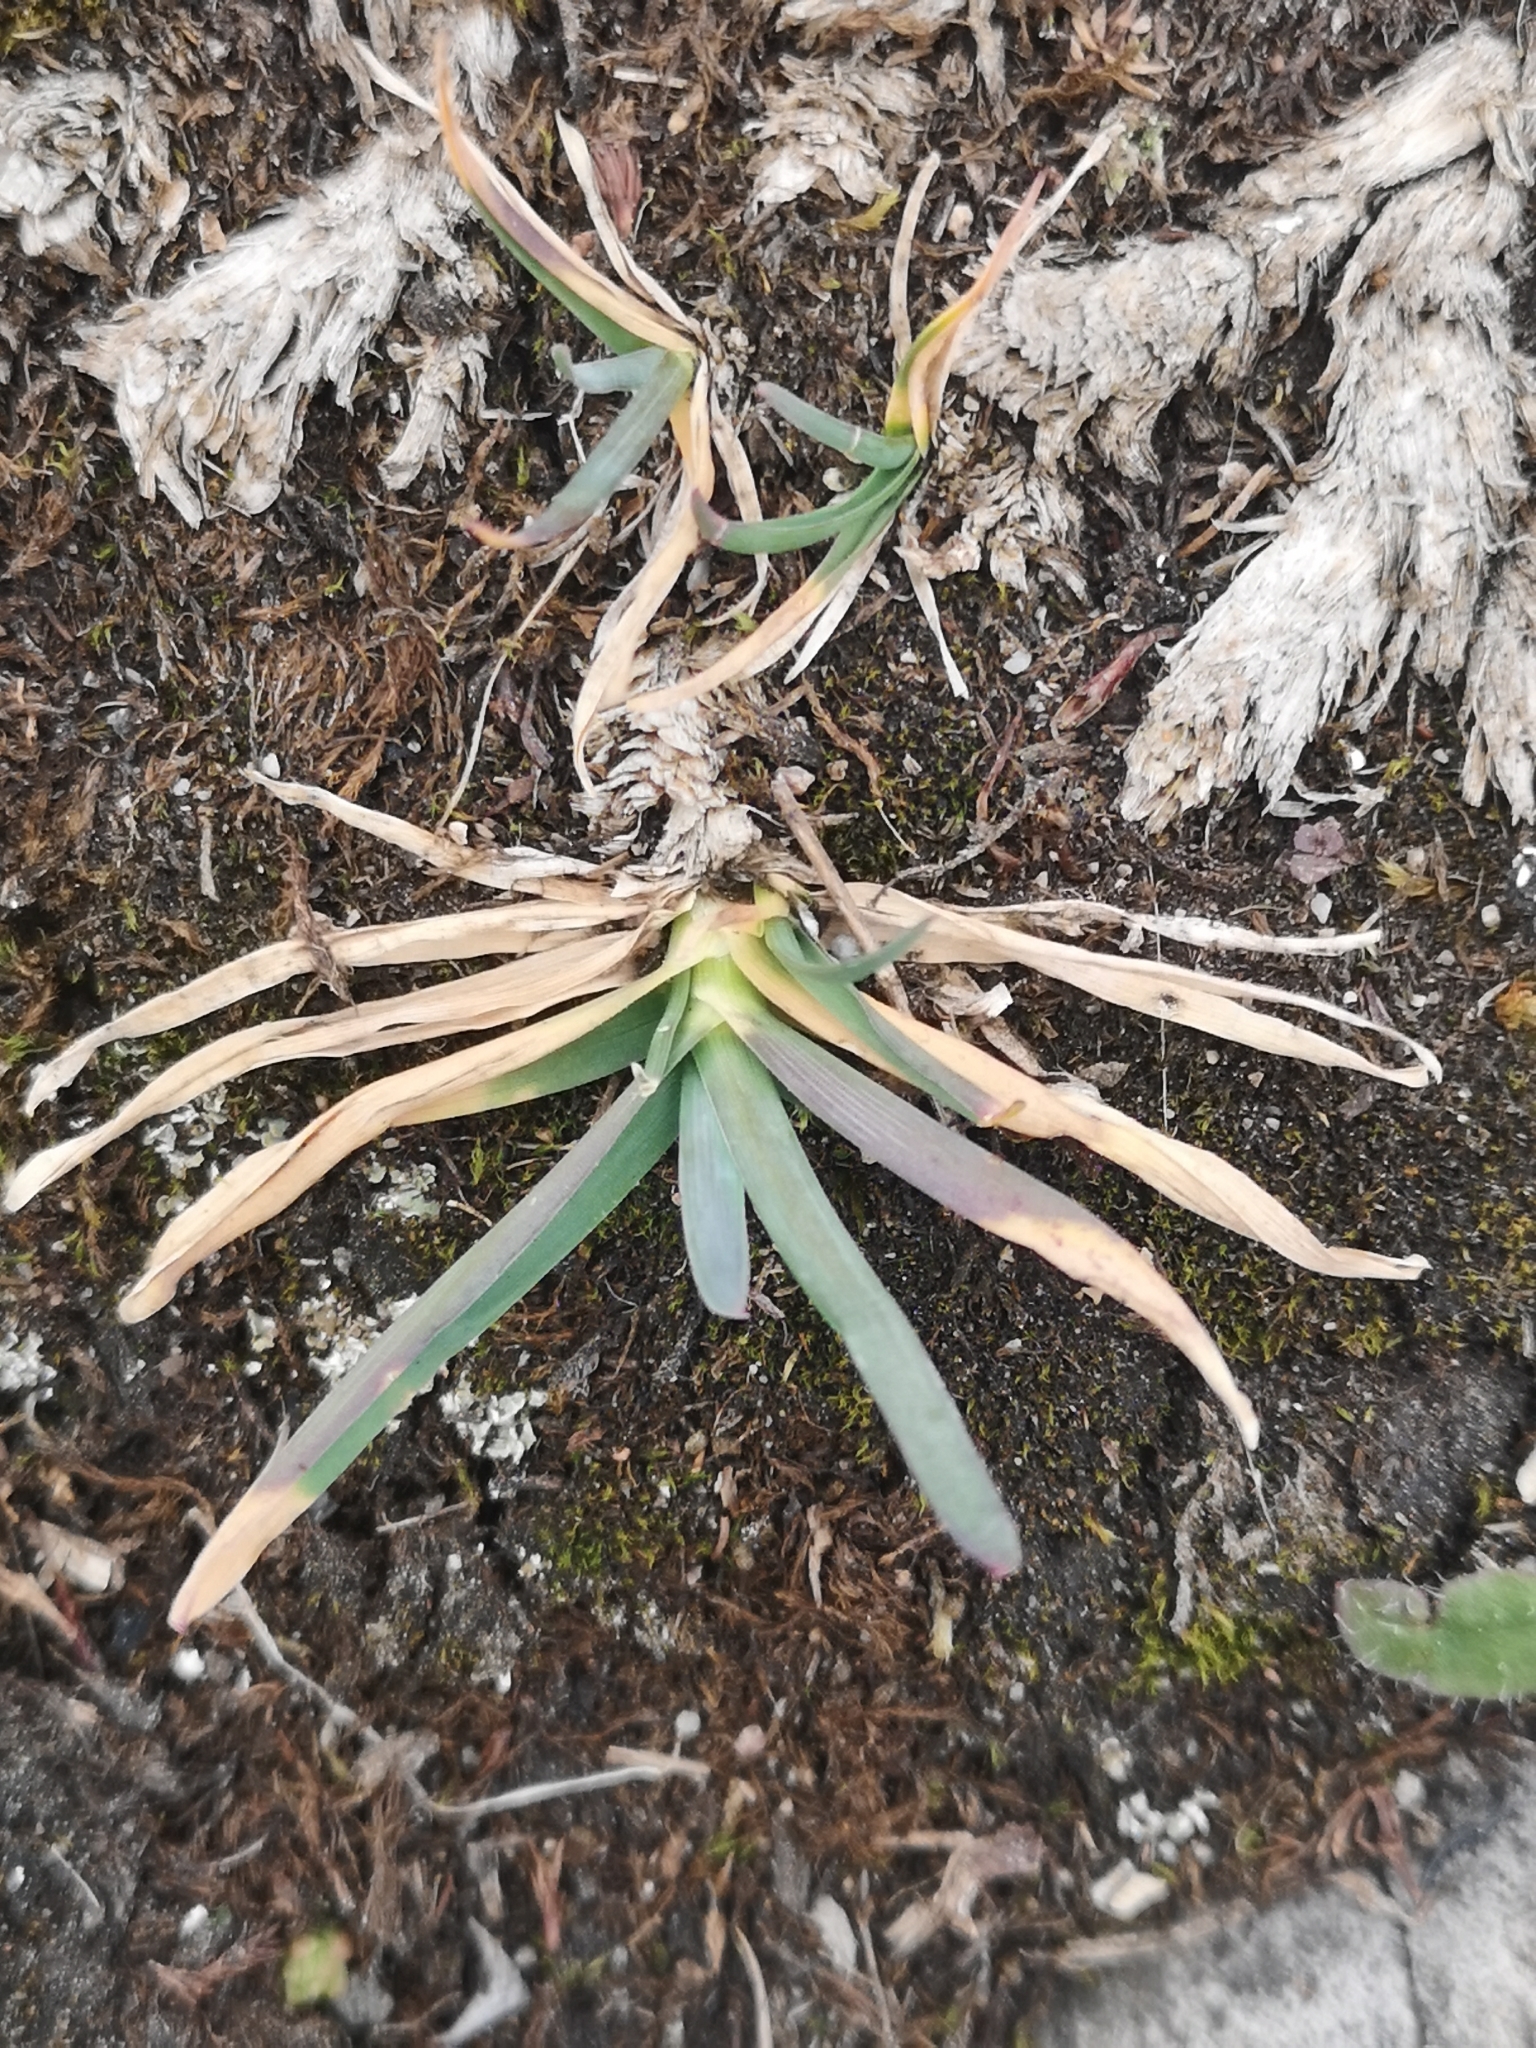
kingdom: Plantae
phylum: Tracheophyta
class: Liliopsida
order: Poales
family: Poaceae
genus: Poa
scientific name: Poa alpina
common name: Alpine bluegrass
